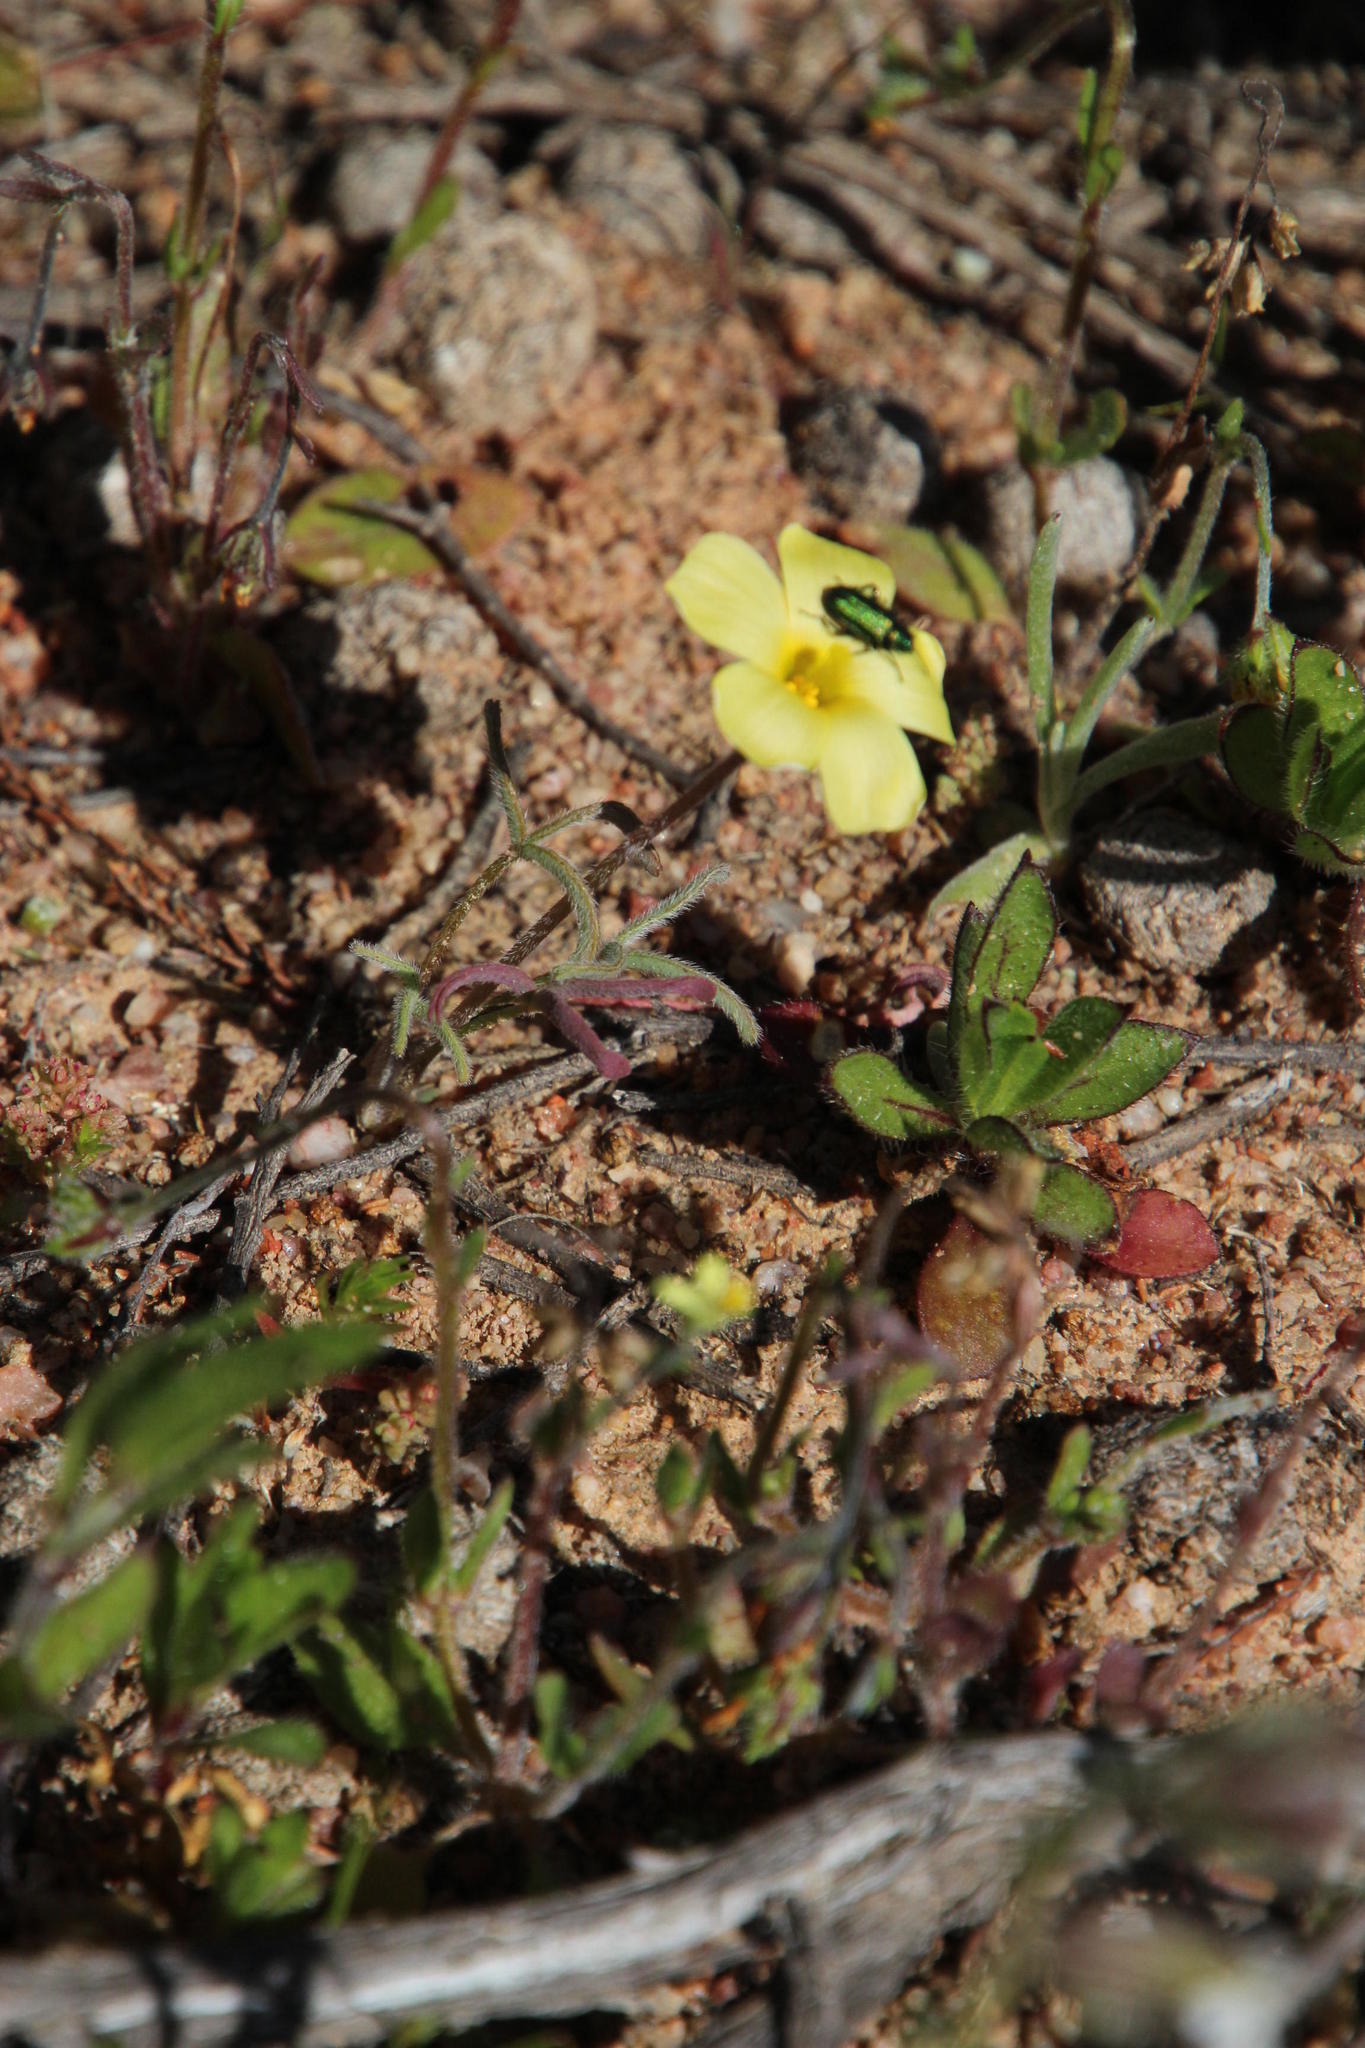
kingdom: Plantae
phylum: Tracheophyta
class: Magnoliopsida
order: Oxalidales
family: Oxalidaceae
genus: Oxalis
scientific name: Oxalis obtusa
